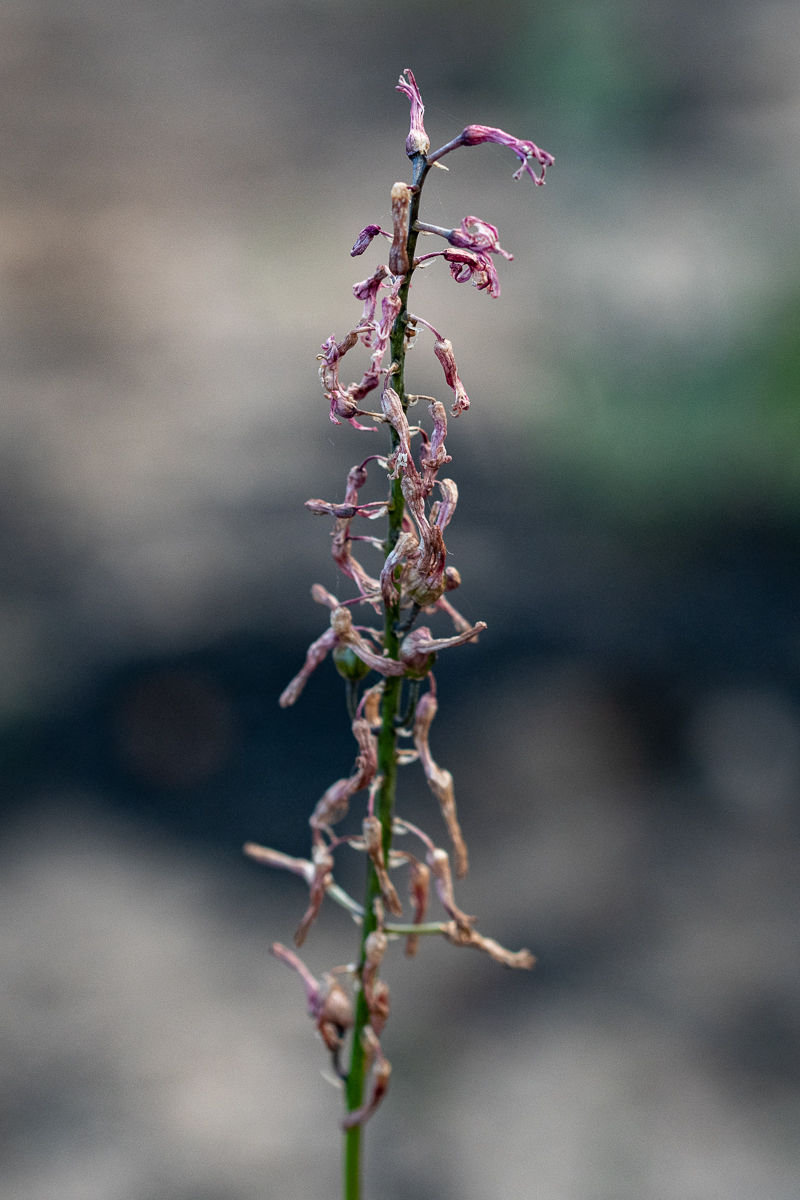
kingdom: Plantae
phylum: Tracheophyta
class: Liliopsida
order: Asparagales
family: Asparagaceae
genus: Drimia
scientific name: Drimia media
